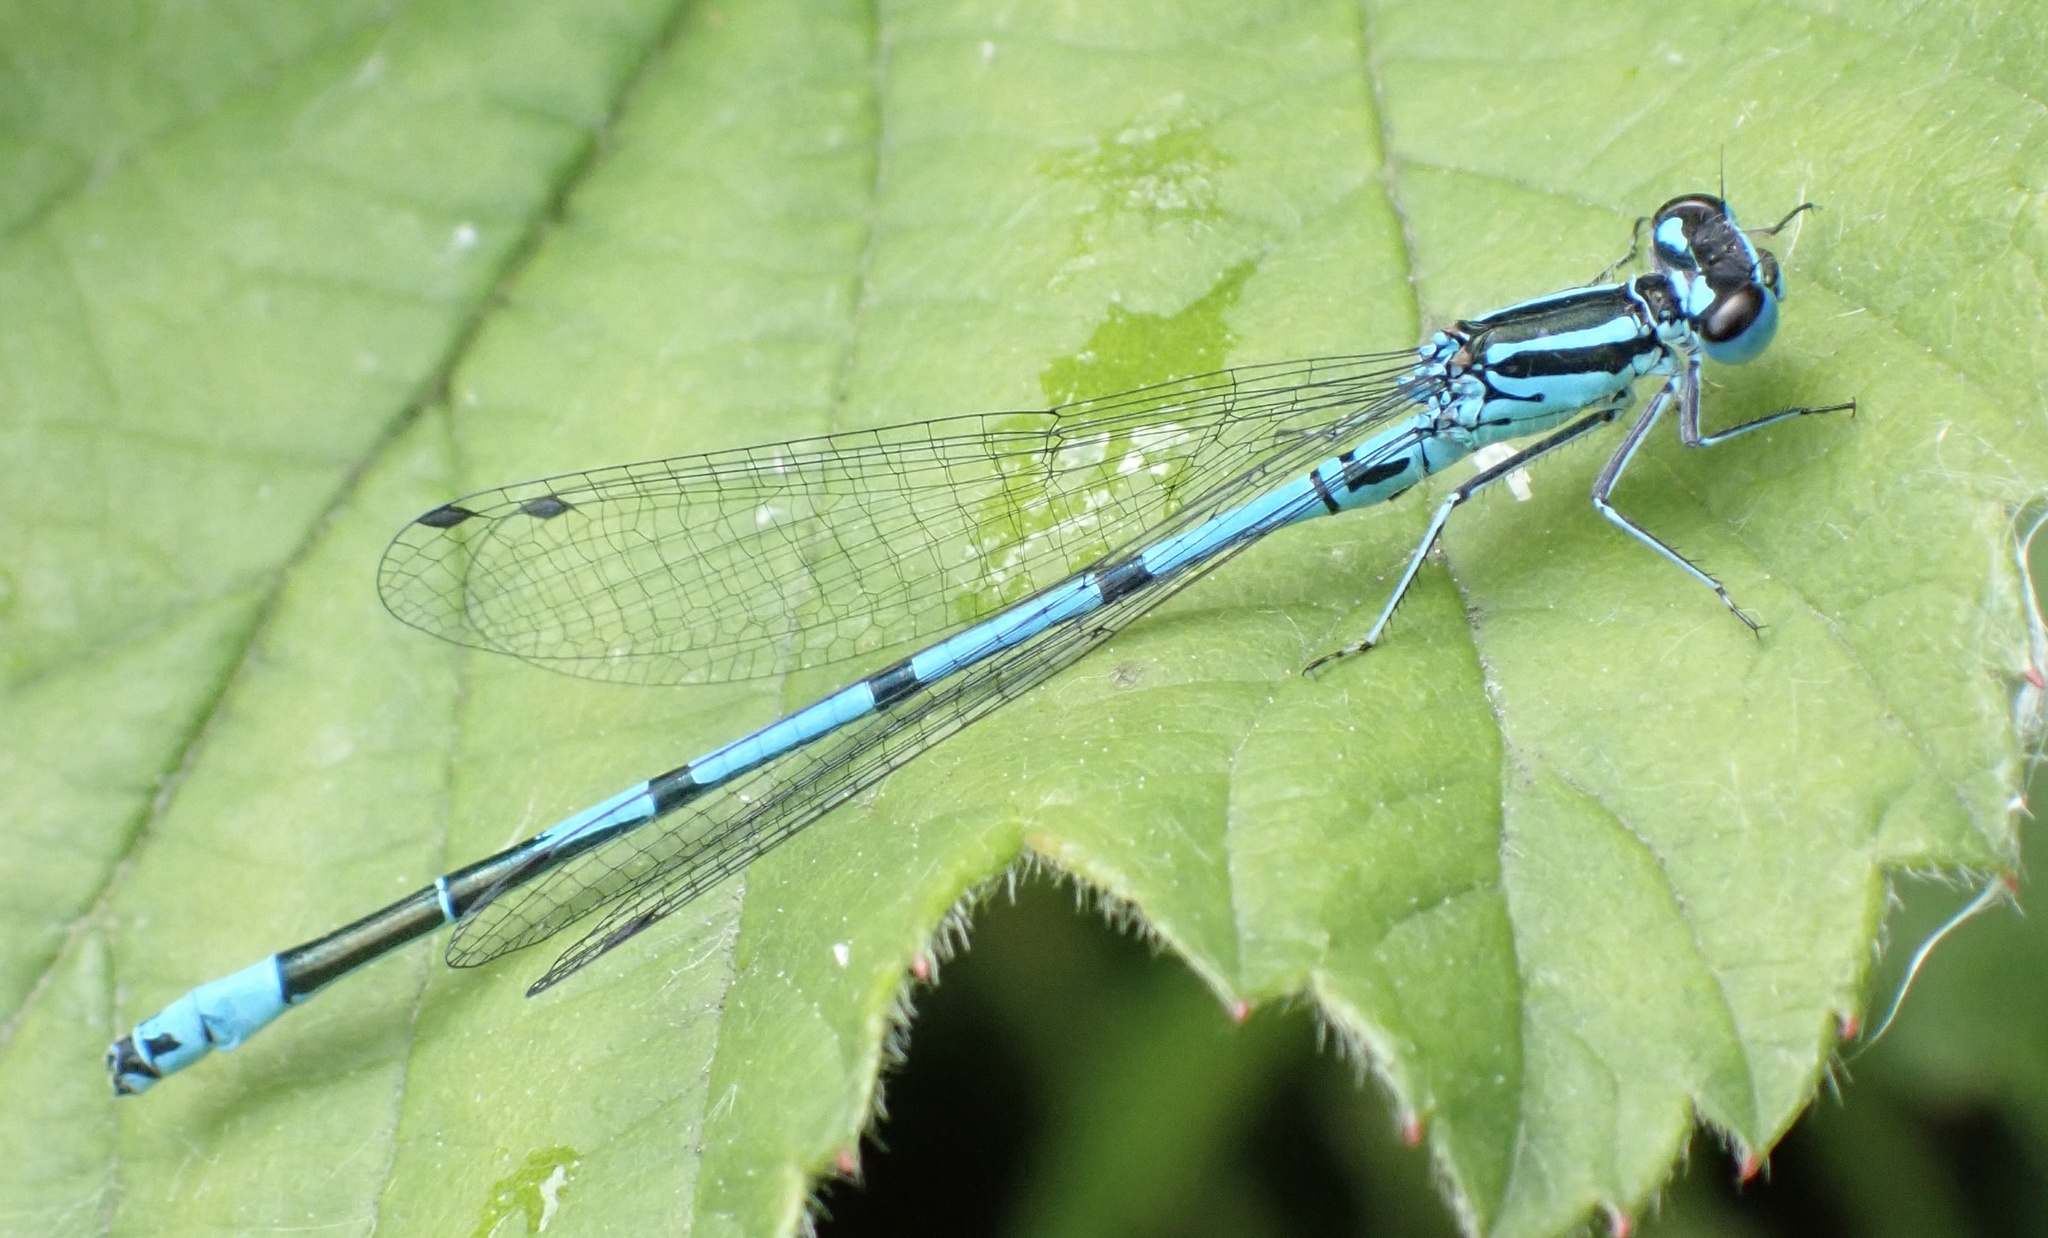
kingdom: Animalia
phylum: Arthropoda
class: Insecta
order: Odonata
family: Coenagrionidae
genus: Coenagrion
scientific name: Coenagrion puella
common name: Azure damselfly
